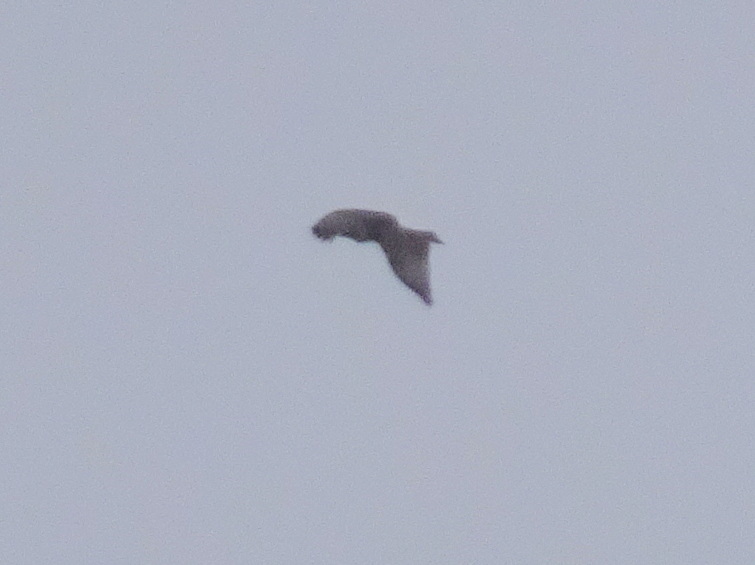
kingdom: Animalia
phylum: Chordata
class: Aves
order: Accipitriformes
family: Accipitridae
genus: Buteo
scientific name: Buteo jamaicensis
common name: Red-tailed hawk
